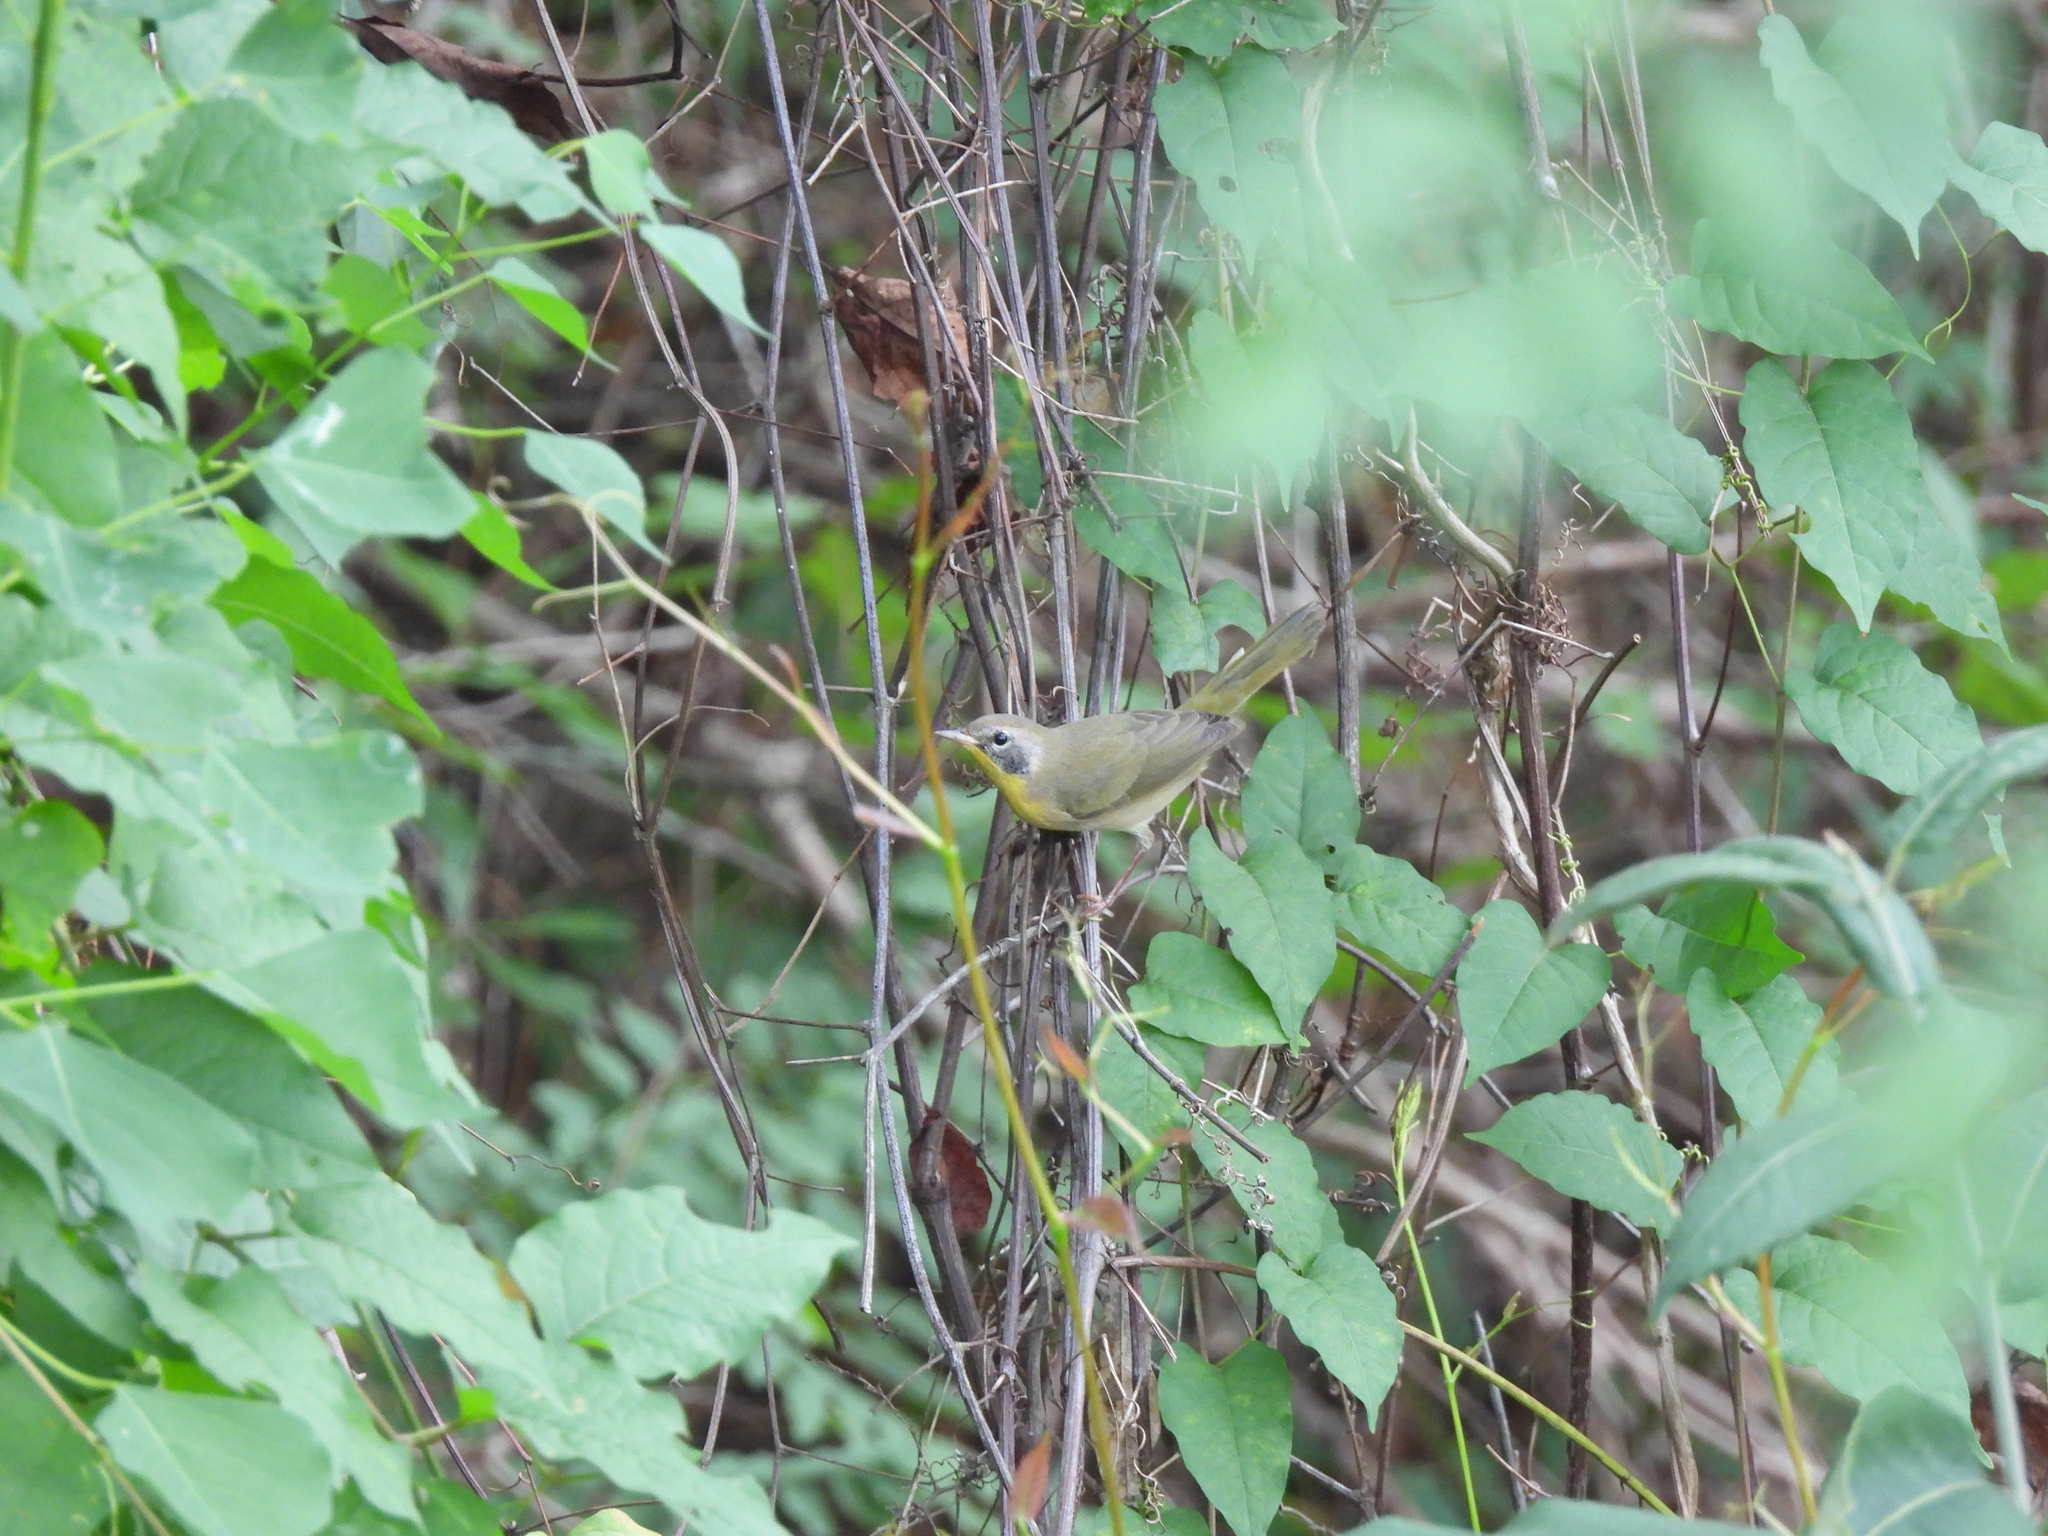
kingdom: Animalia
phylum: Chordata
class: Aves
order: Passeriformes
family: Parulidae
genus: Geothlypis
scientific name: Geothlypis trichas
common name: Common yellowthroat
